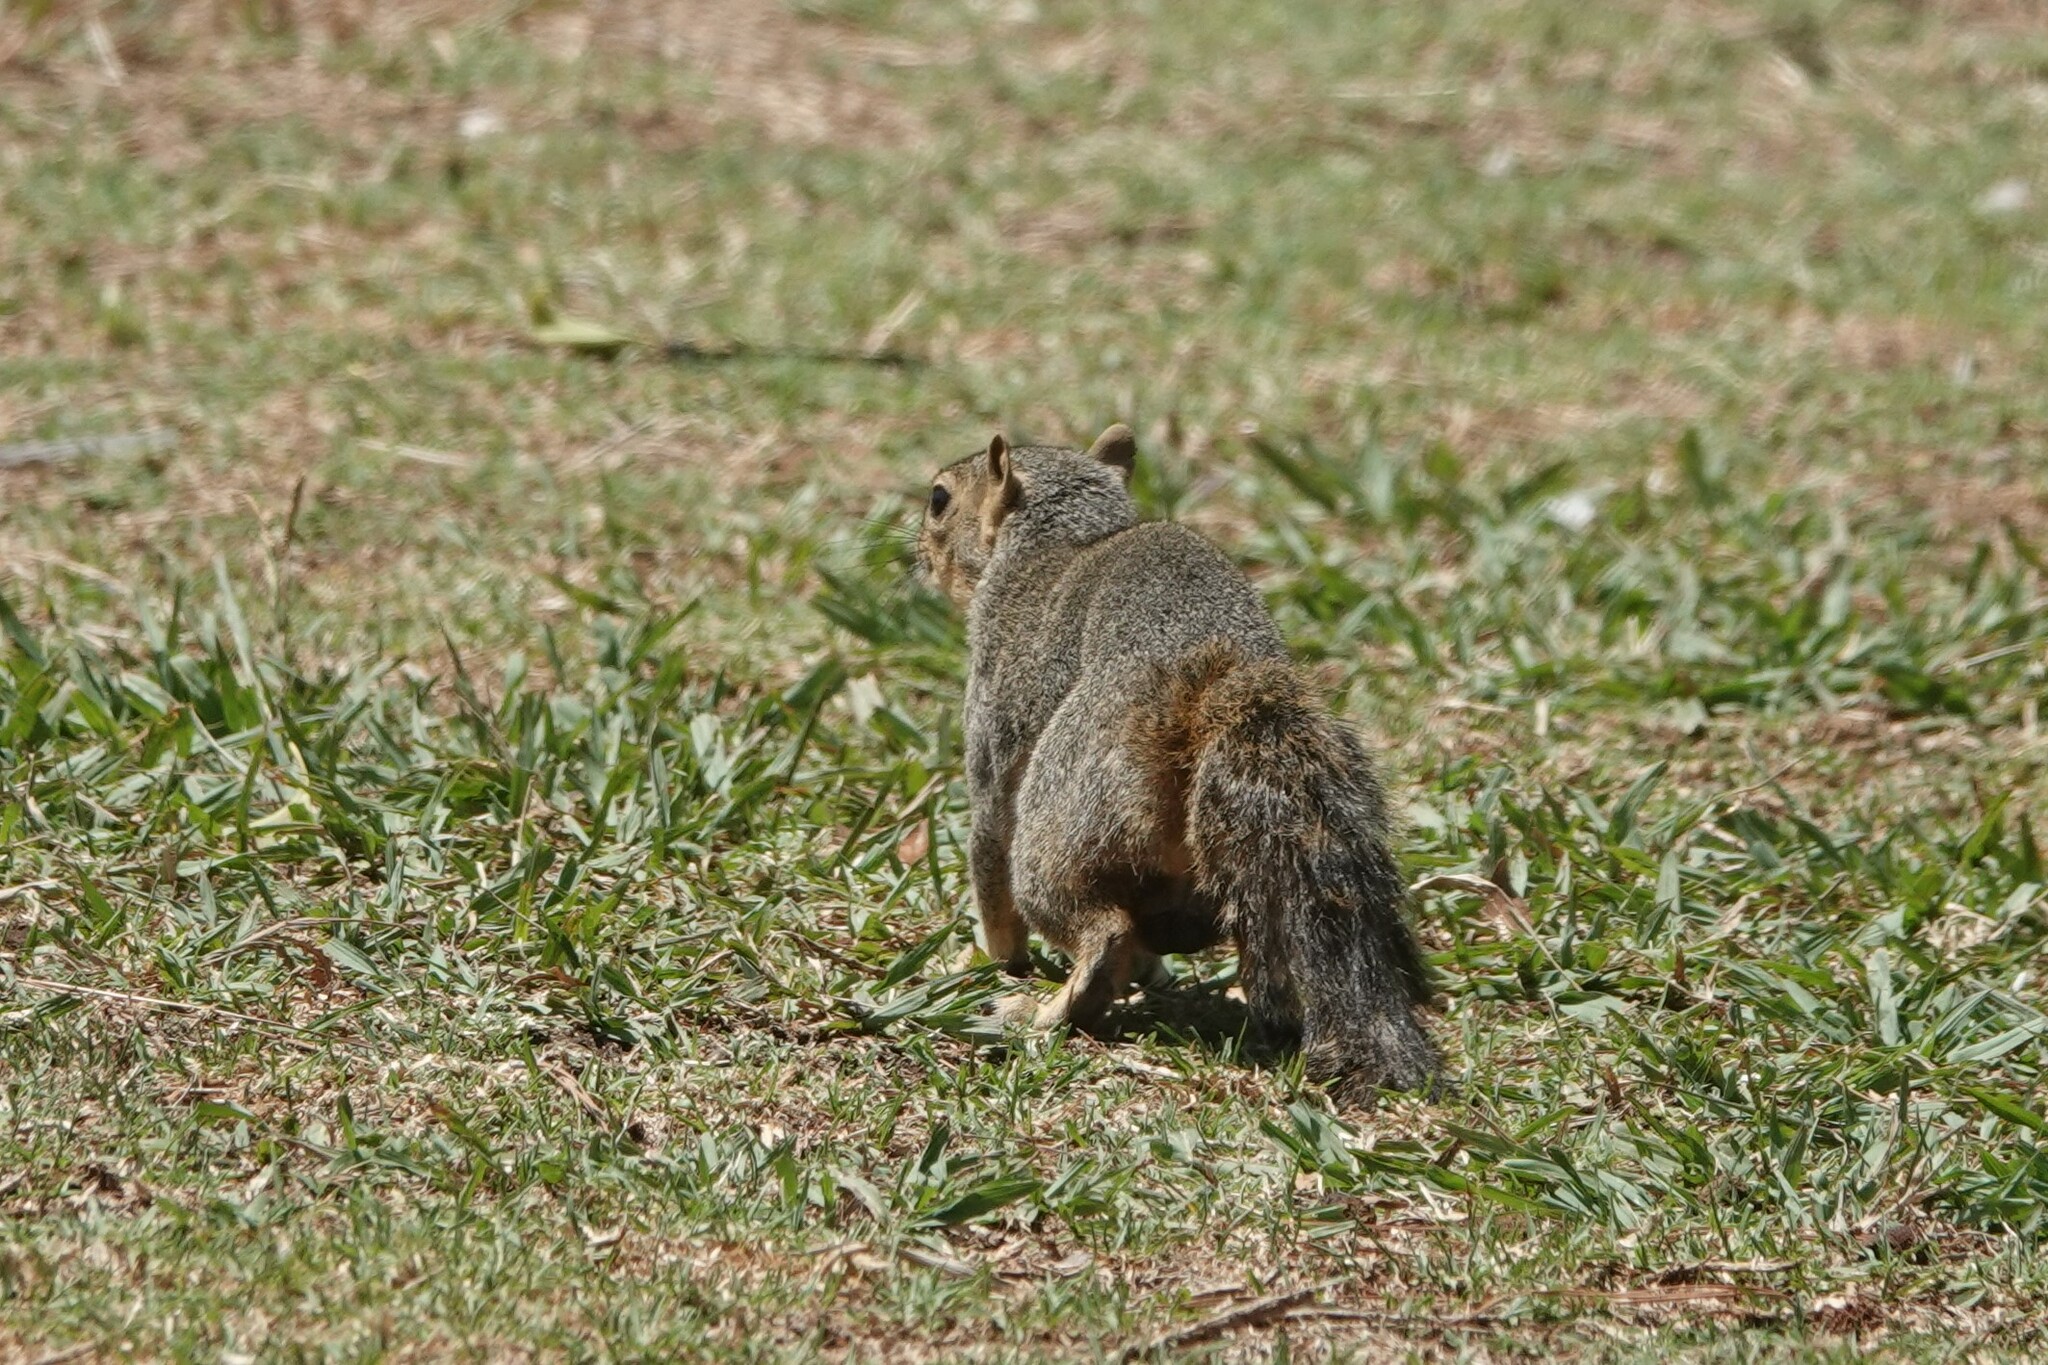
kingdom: Animalia
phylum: Chordata
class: Mammalia
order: Rodentia
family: Sciuridae
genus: Sciurus
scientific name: Sciurus niger
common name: Fox squirrel
